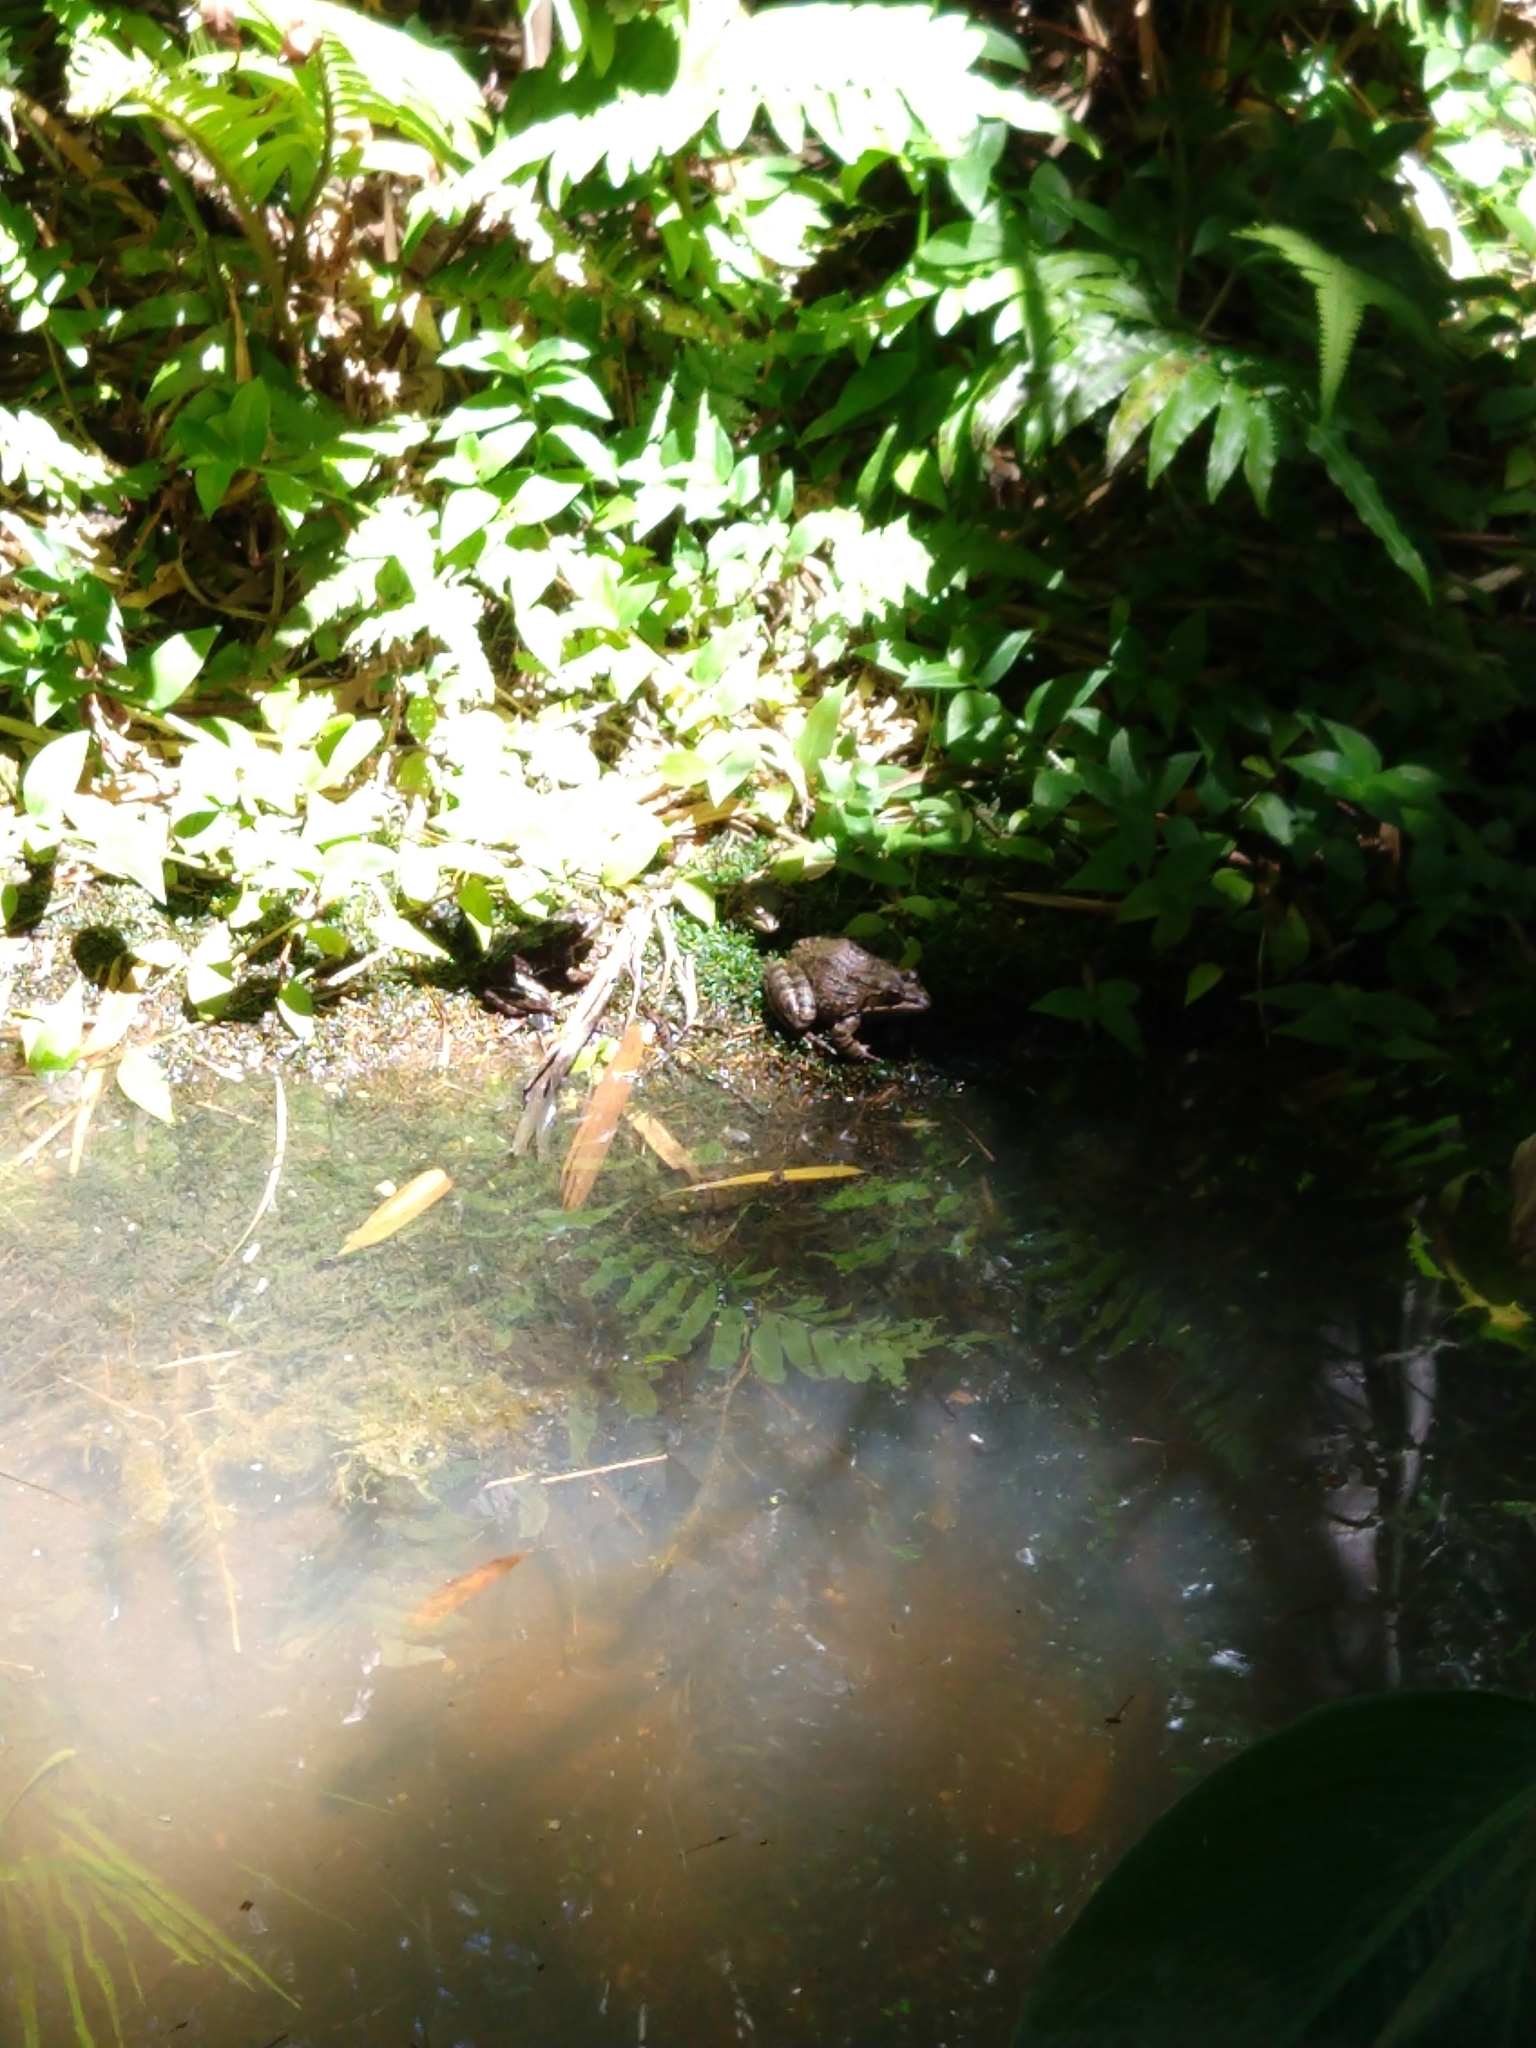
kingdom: Animalia
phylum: Chordata
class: Amphibia
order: Anura
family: Pyxicephalidae
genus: Amietia
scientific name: Amietia fuscigula
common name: Cape rana
